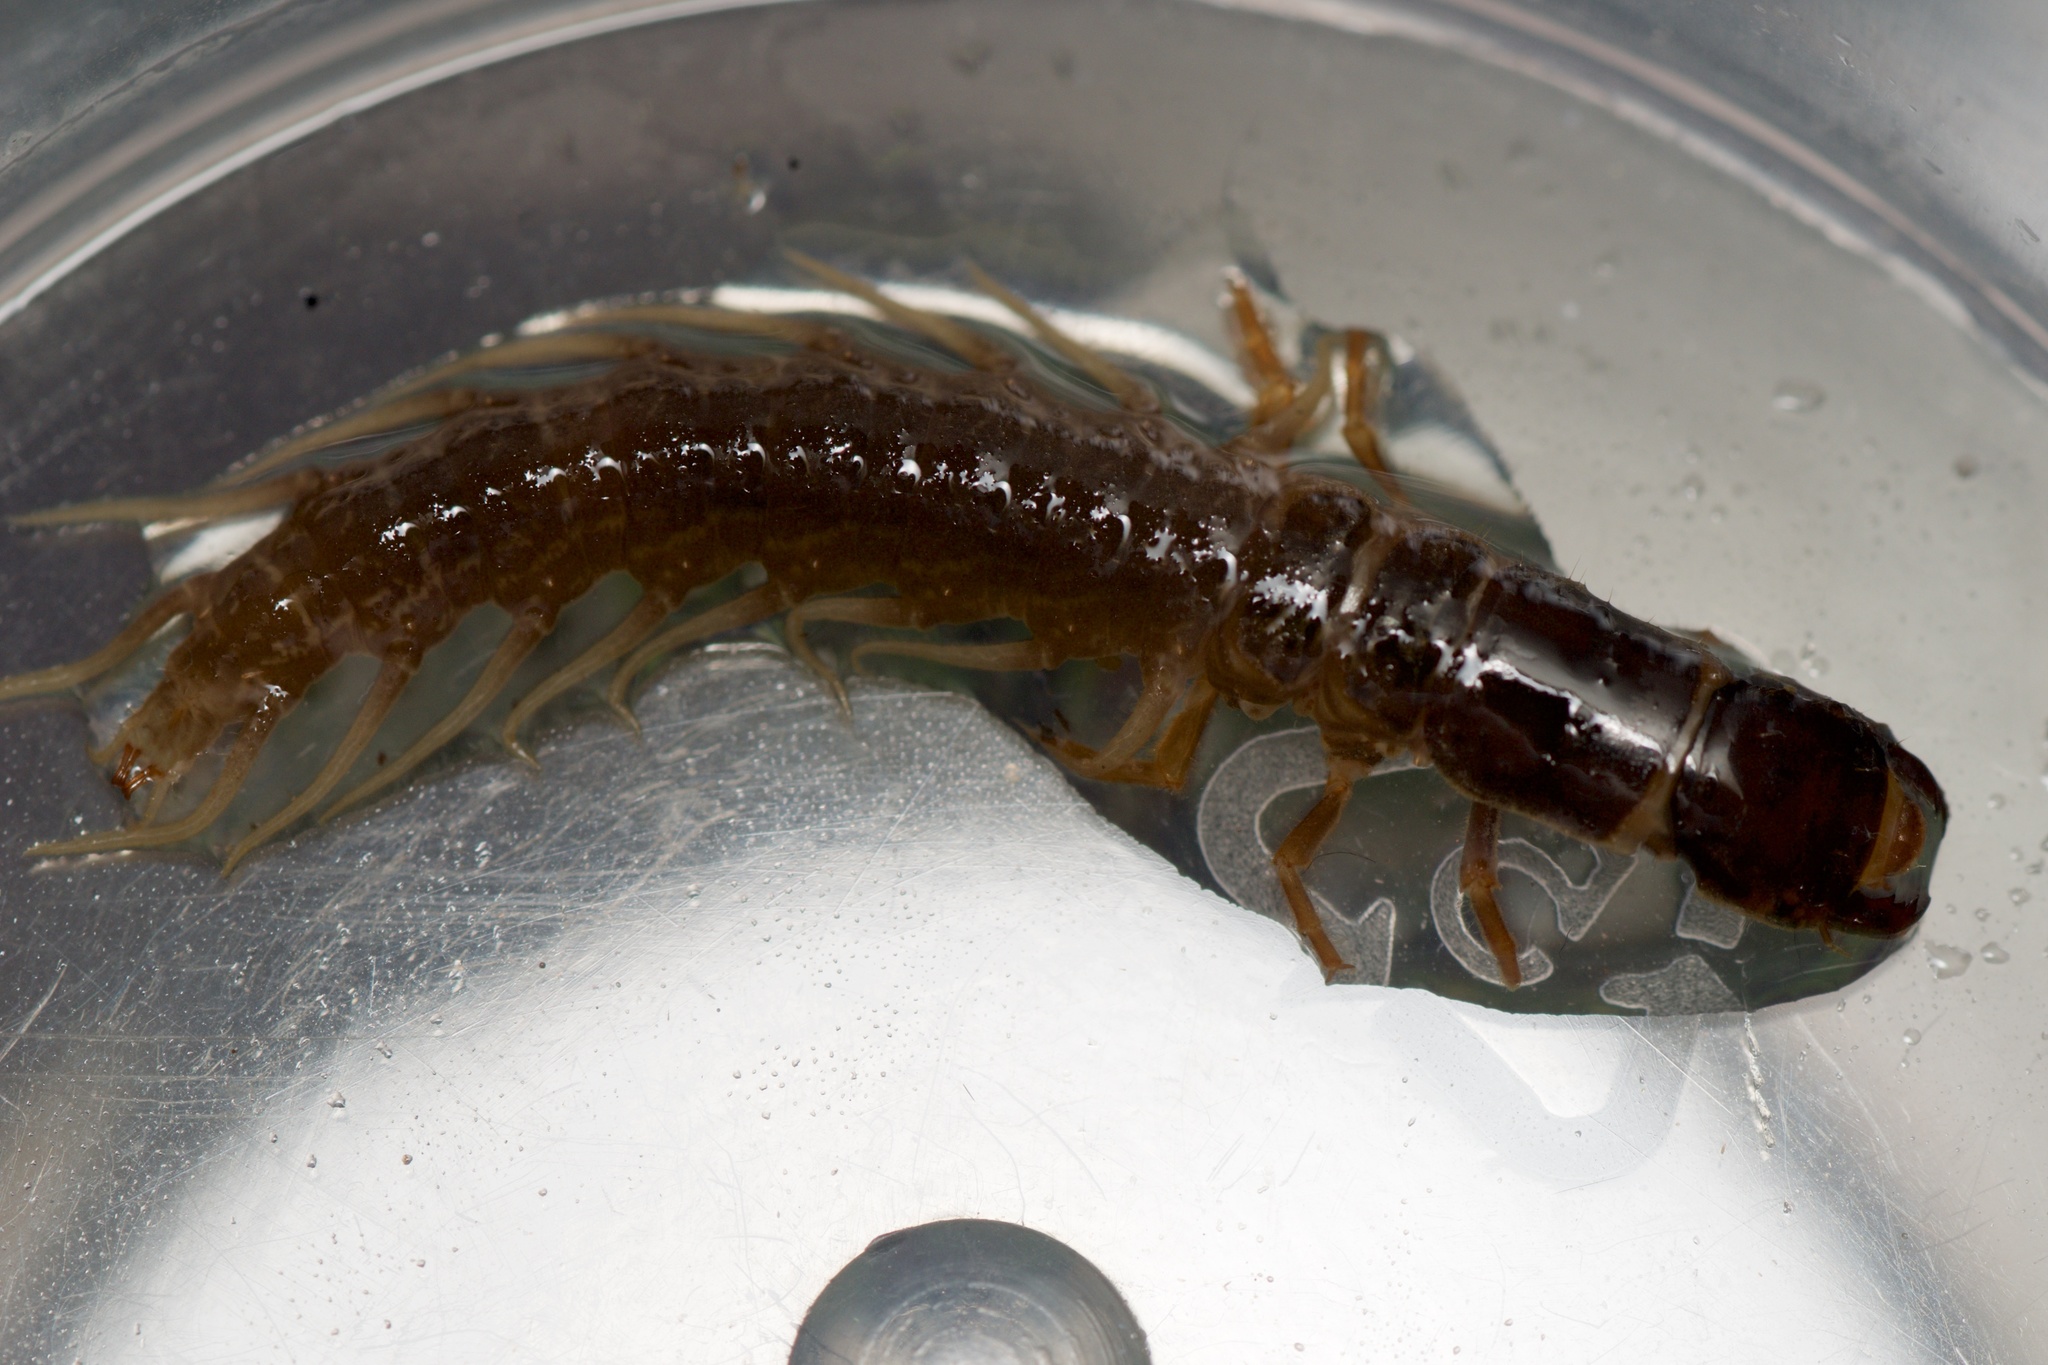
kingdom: Animalia
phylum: Arthropoda
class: Insecta
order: Megaloptera
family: Corydalidae
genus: Archichauliodes
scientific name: Archichauliodes diversus
